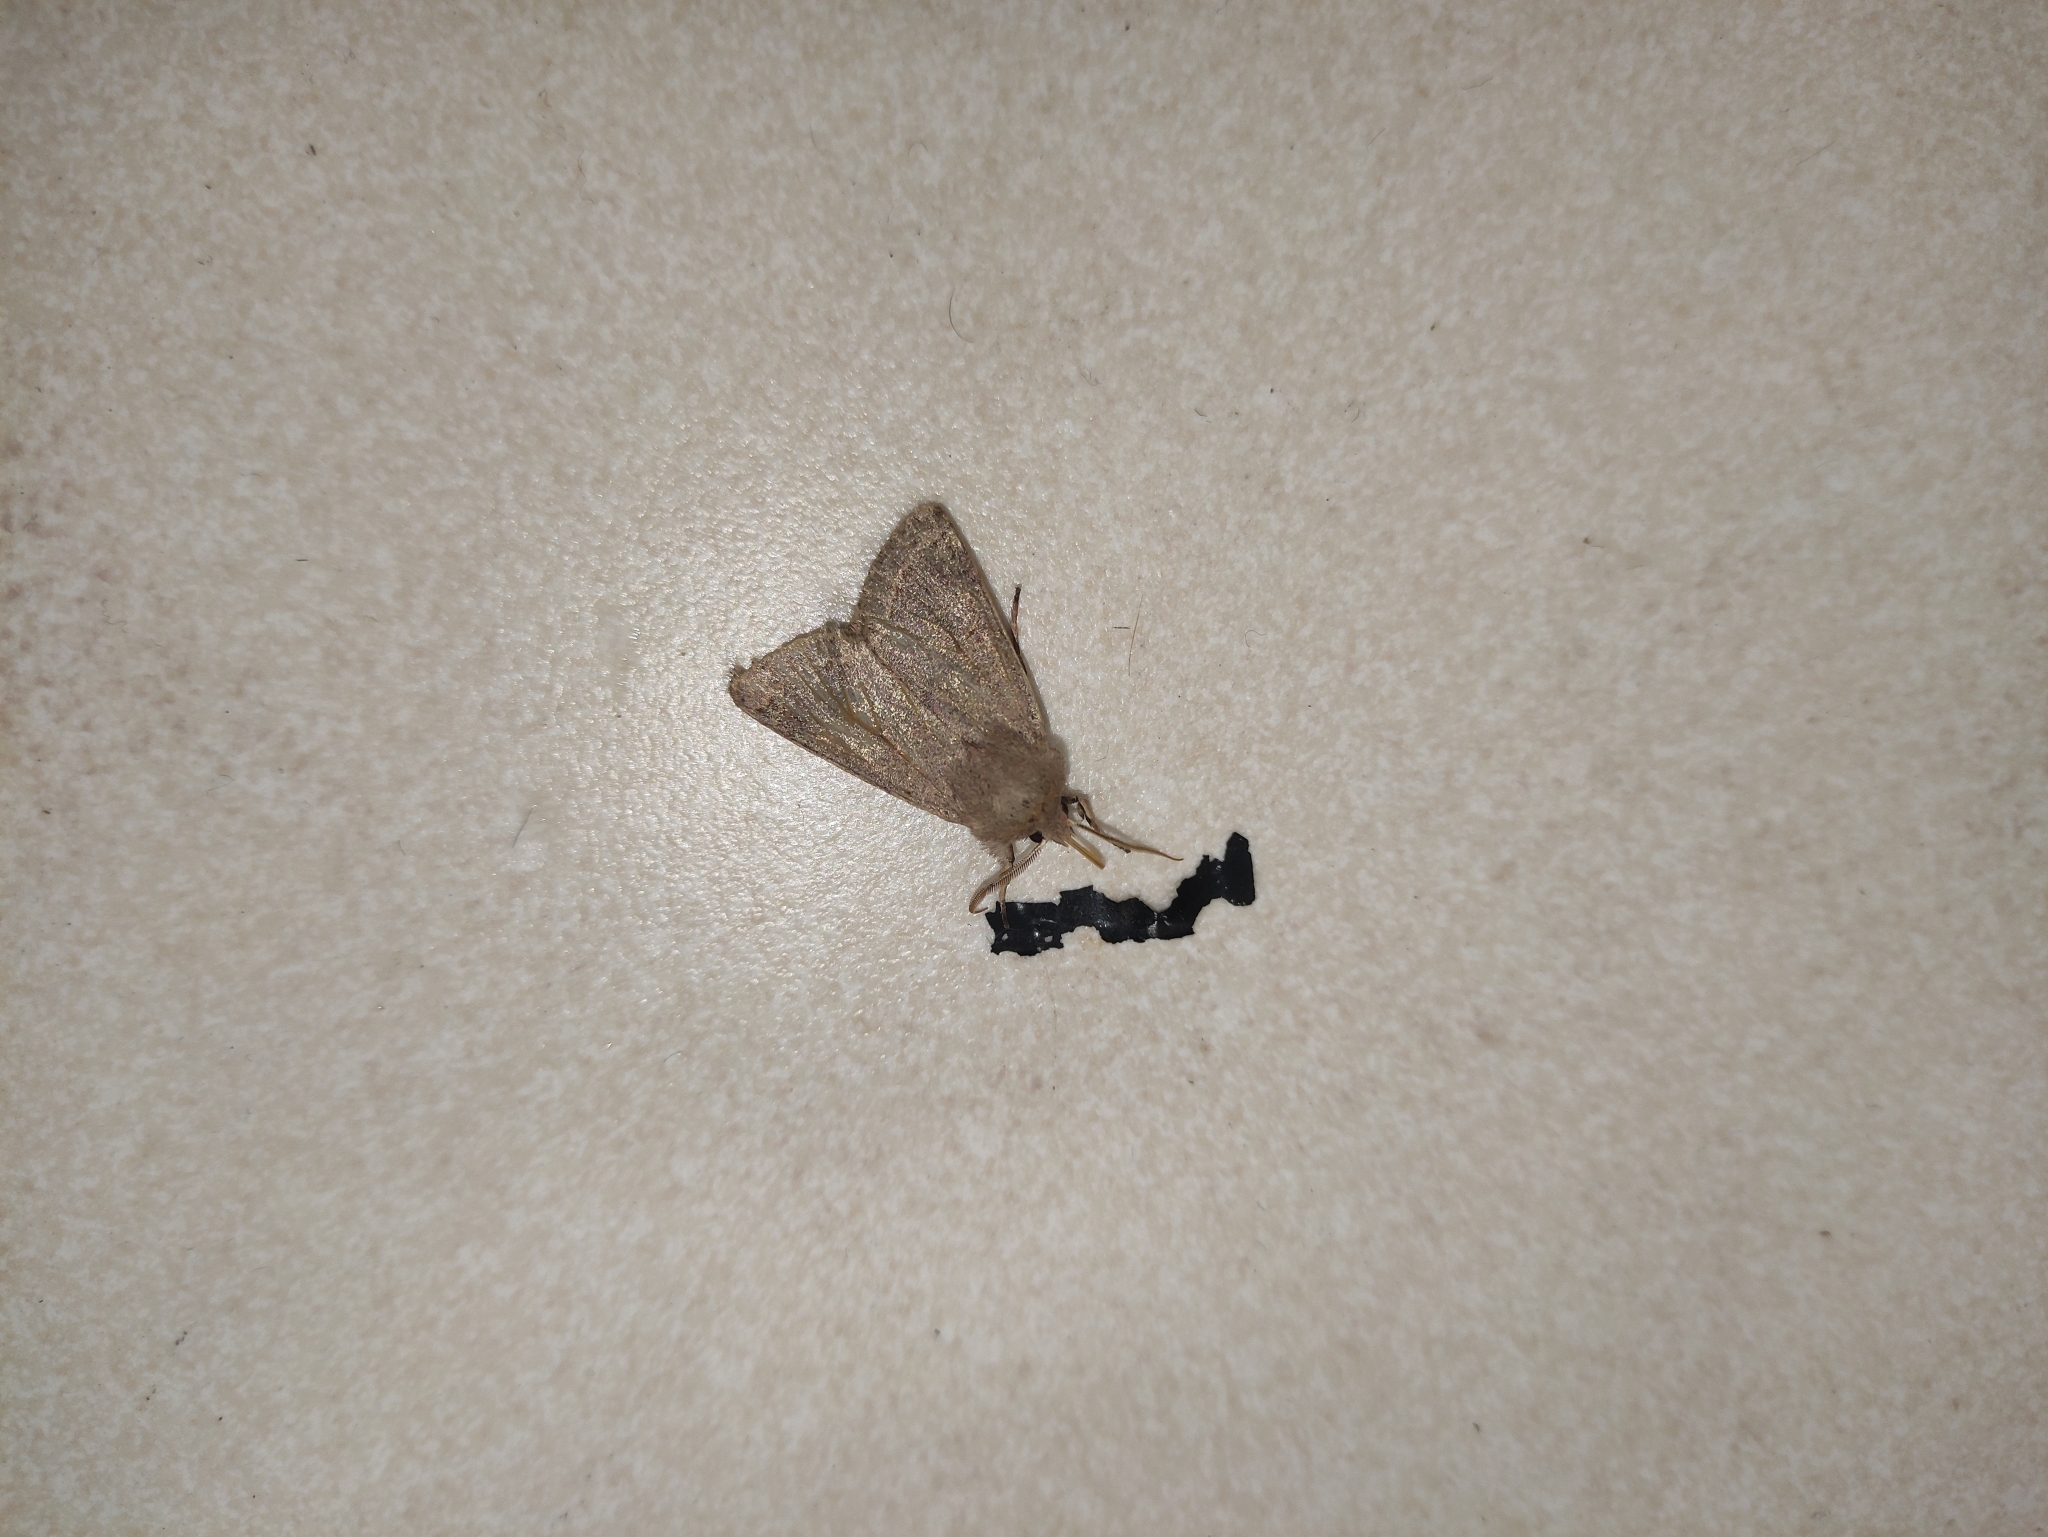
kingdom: Animalia
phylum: Arthropoda
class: Insecta
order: Lepidoptera
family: Noctuidae
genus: Orthosia
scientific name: Orthosia cerasi
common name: Common quaker
